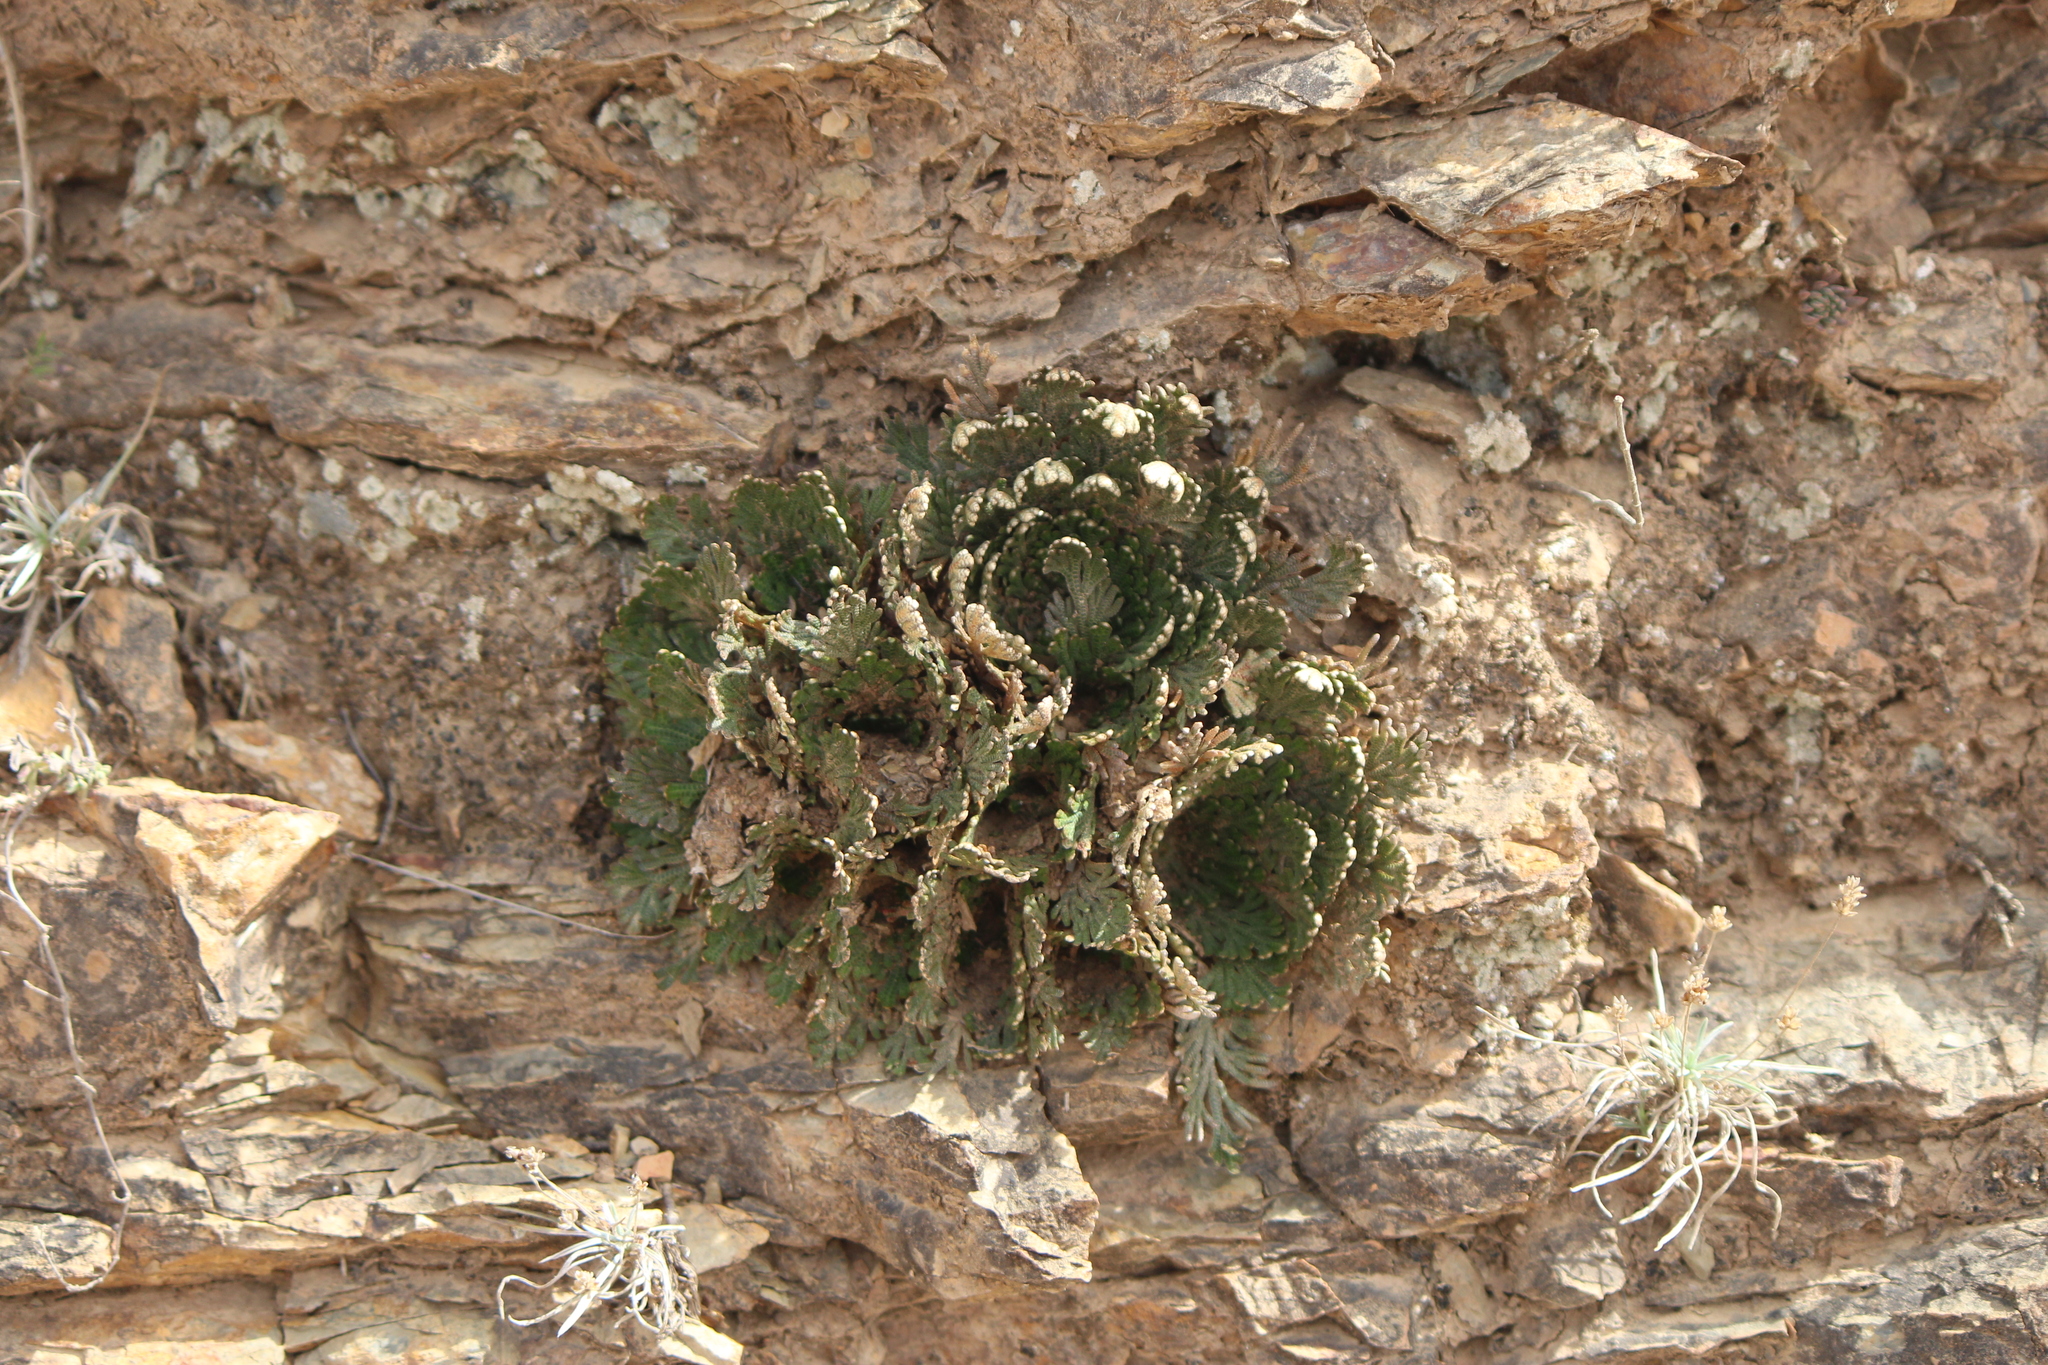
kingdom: Plantae
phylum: Tracheophyta
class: Lycopodiopsida
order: Selaginellales
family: Selaginellaceae
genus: Selaginella
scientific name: Selaginella lepidophylla
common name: Rose-of-jericho
